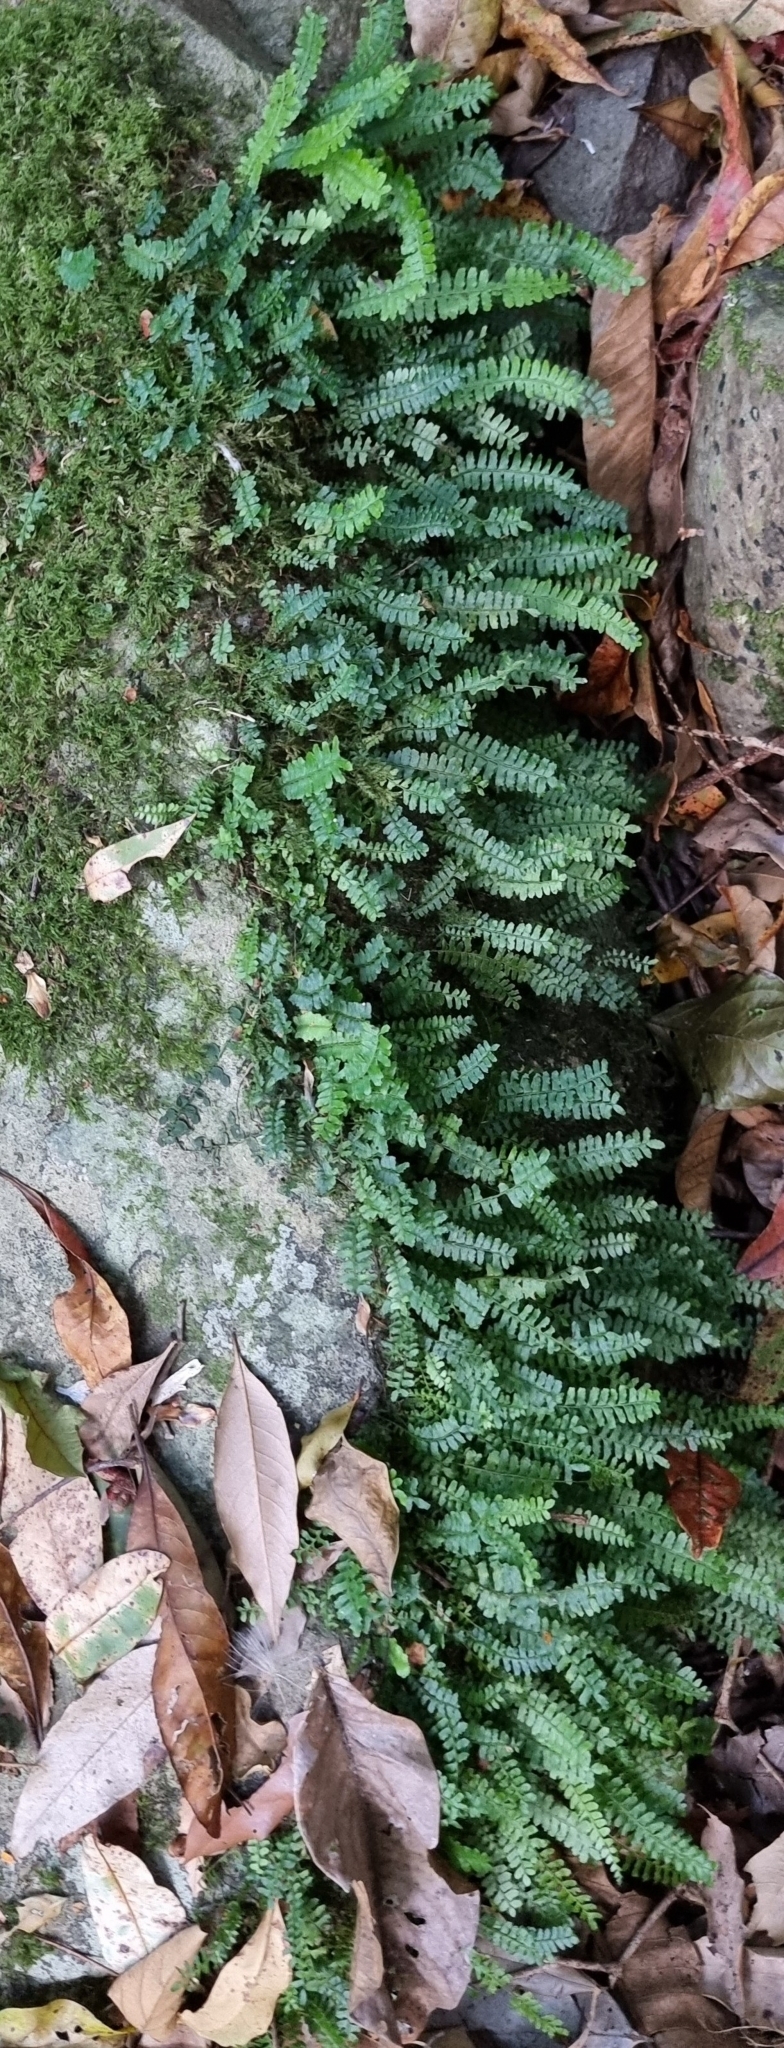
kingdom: Plantae
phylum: Tracheophyta
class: Polypodiopsida
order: Polypodiales
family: Tectariaceae
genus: Arthropteris
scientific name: Arthropteris beckleri
